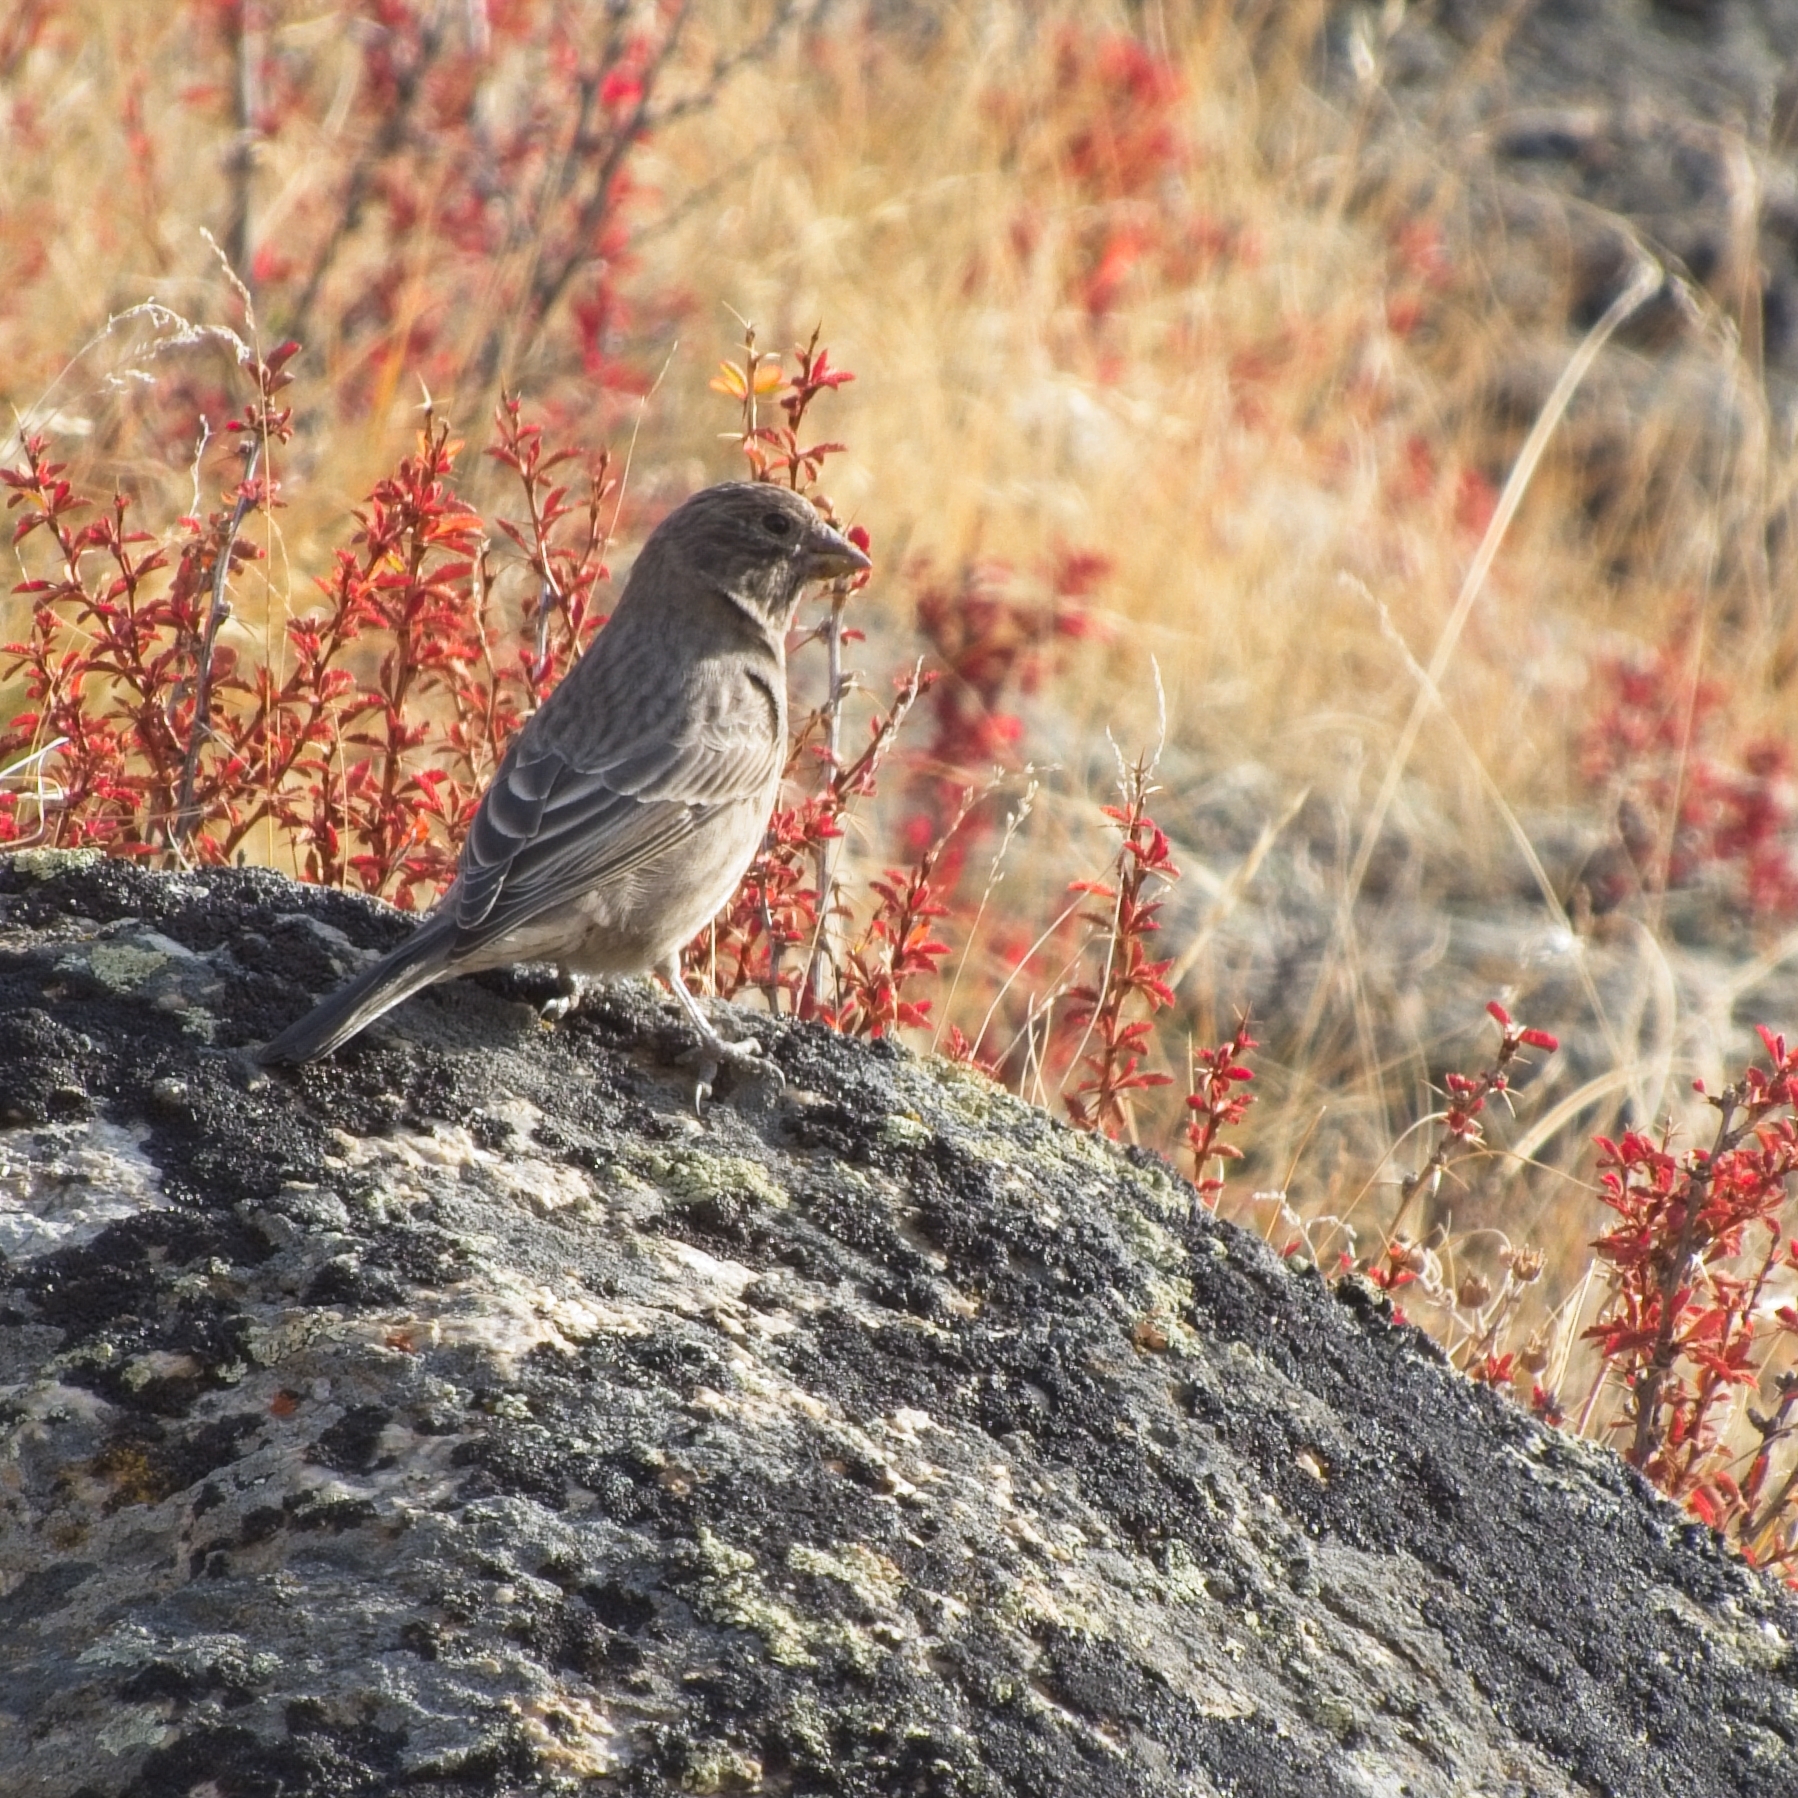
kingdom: Animalia
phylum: Chordata
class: Aves
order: Passeriformes
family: Fringillidae
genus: Carpodacus
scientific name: Carpodacus rubicilla
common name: Great rosefinch
